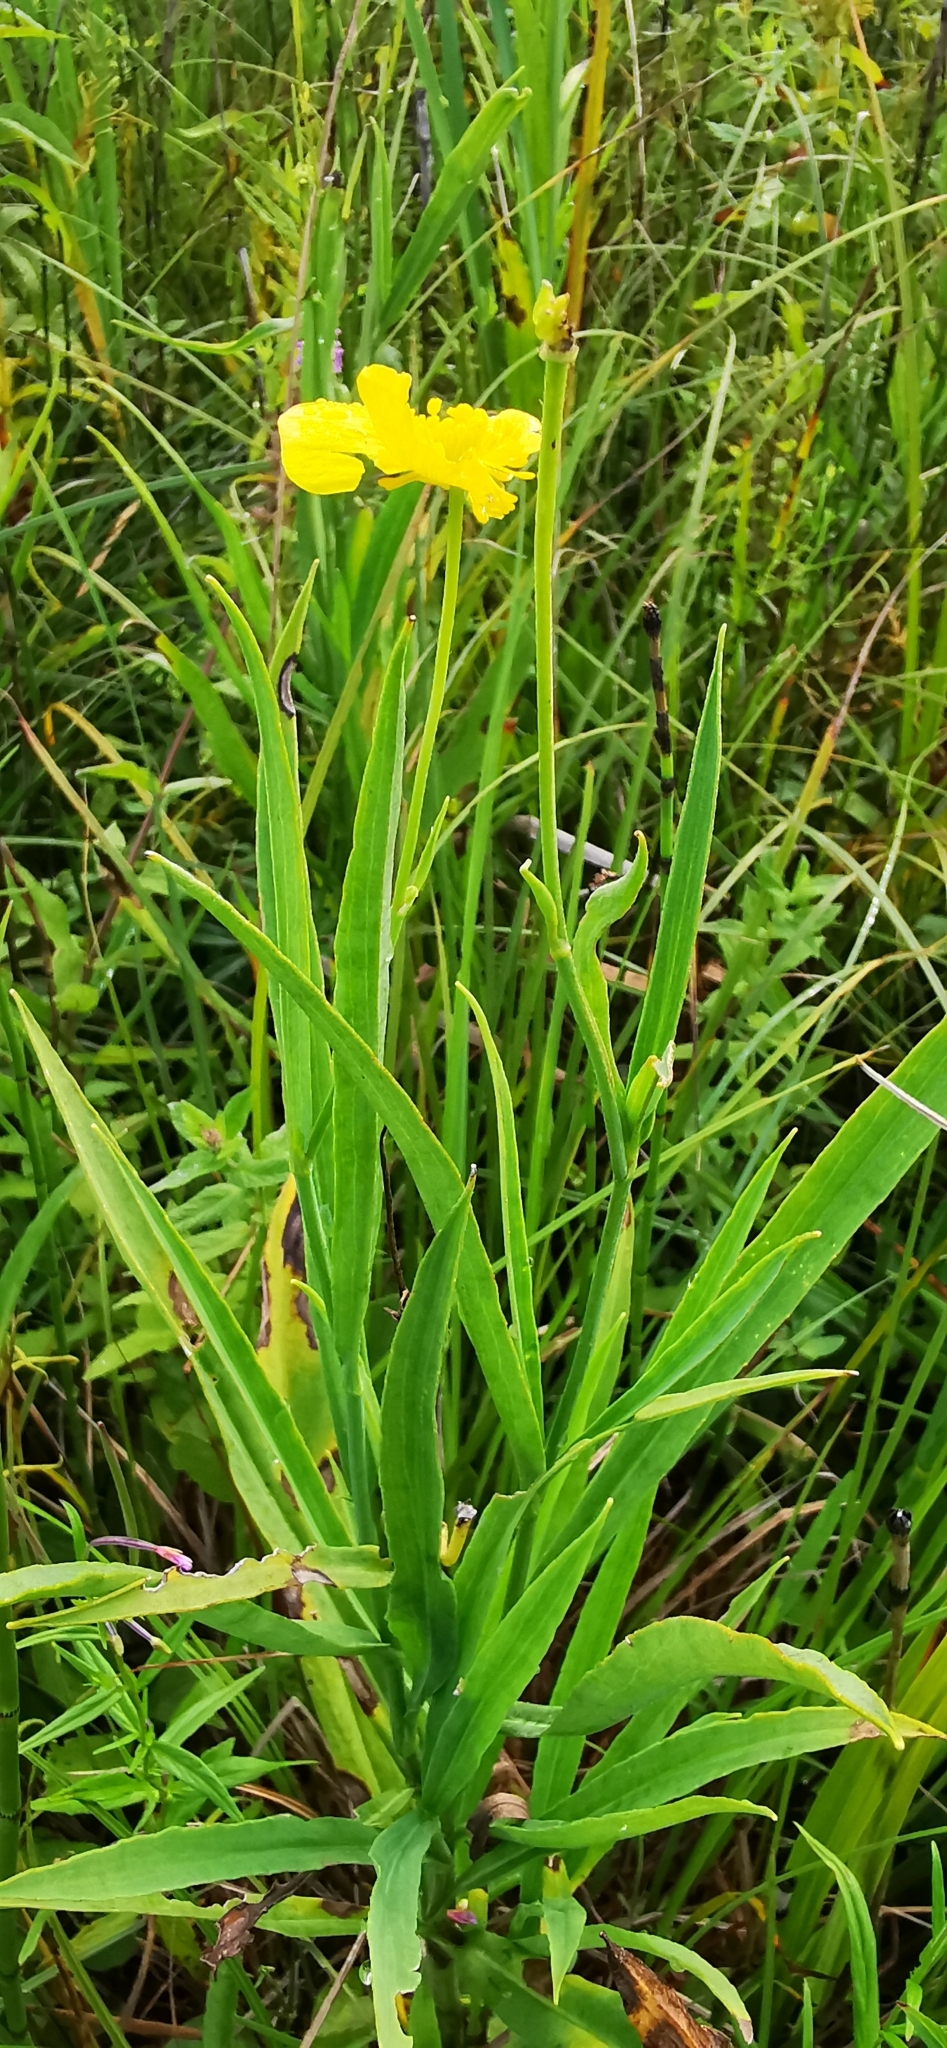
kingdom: Plantae
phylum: Tracheophyta
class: Magnoliopsida
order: Ranunculales
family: Ranunculaceae
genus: Ranunculus
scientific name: Ranunculus lingua
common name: Greater spearwort
